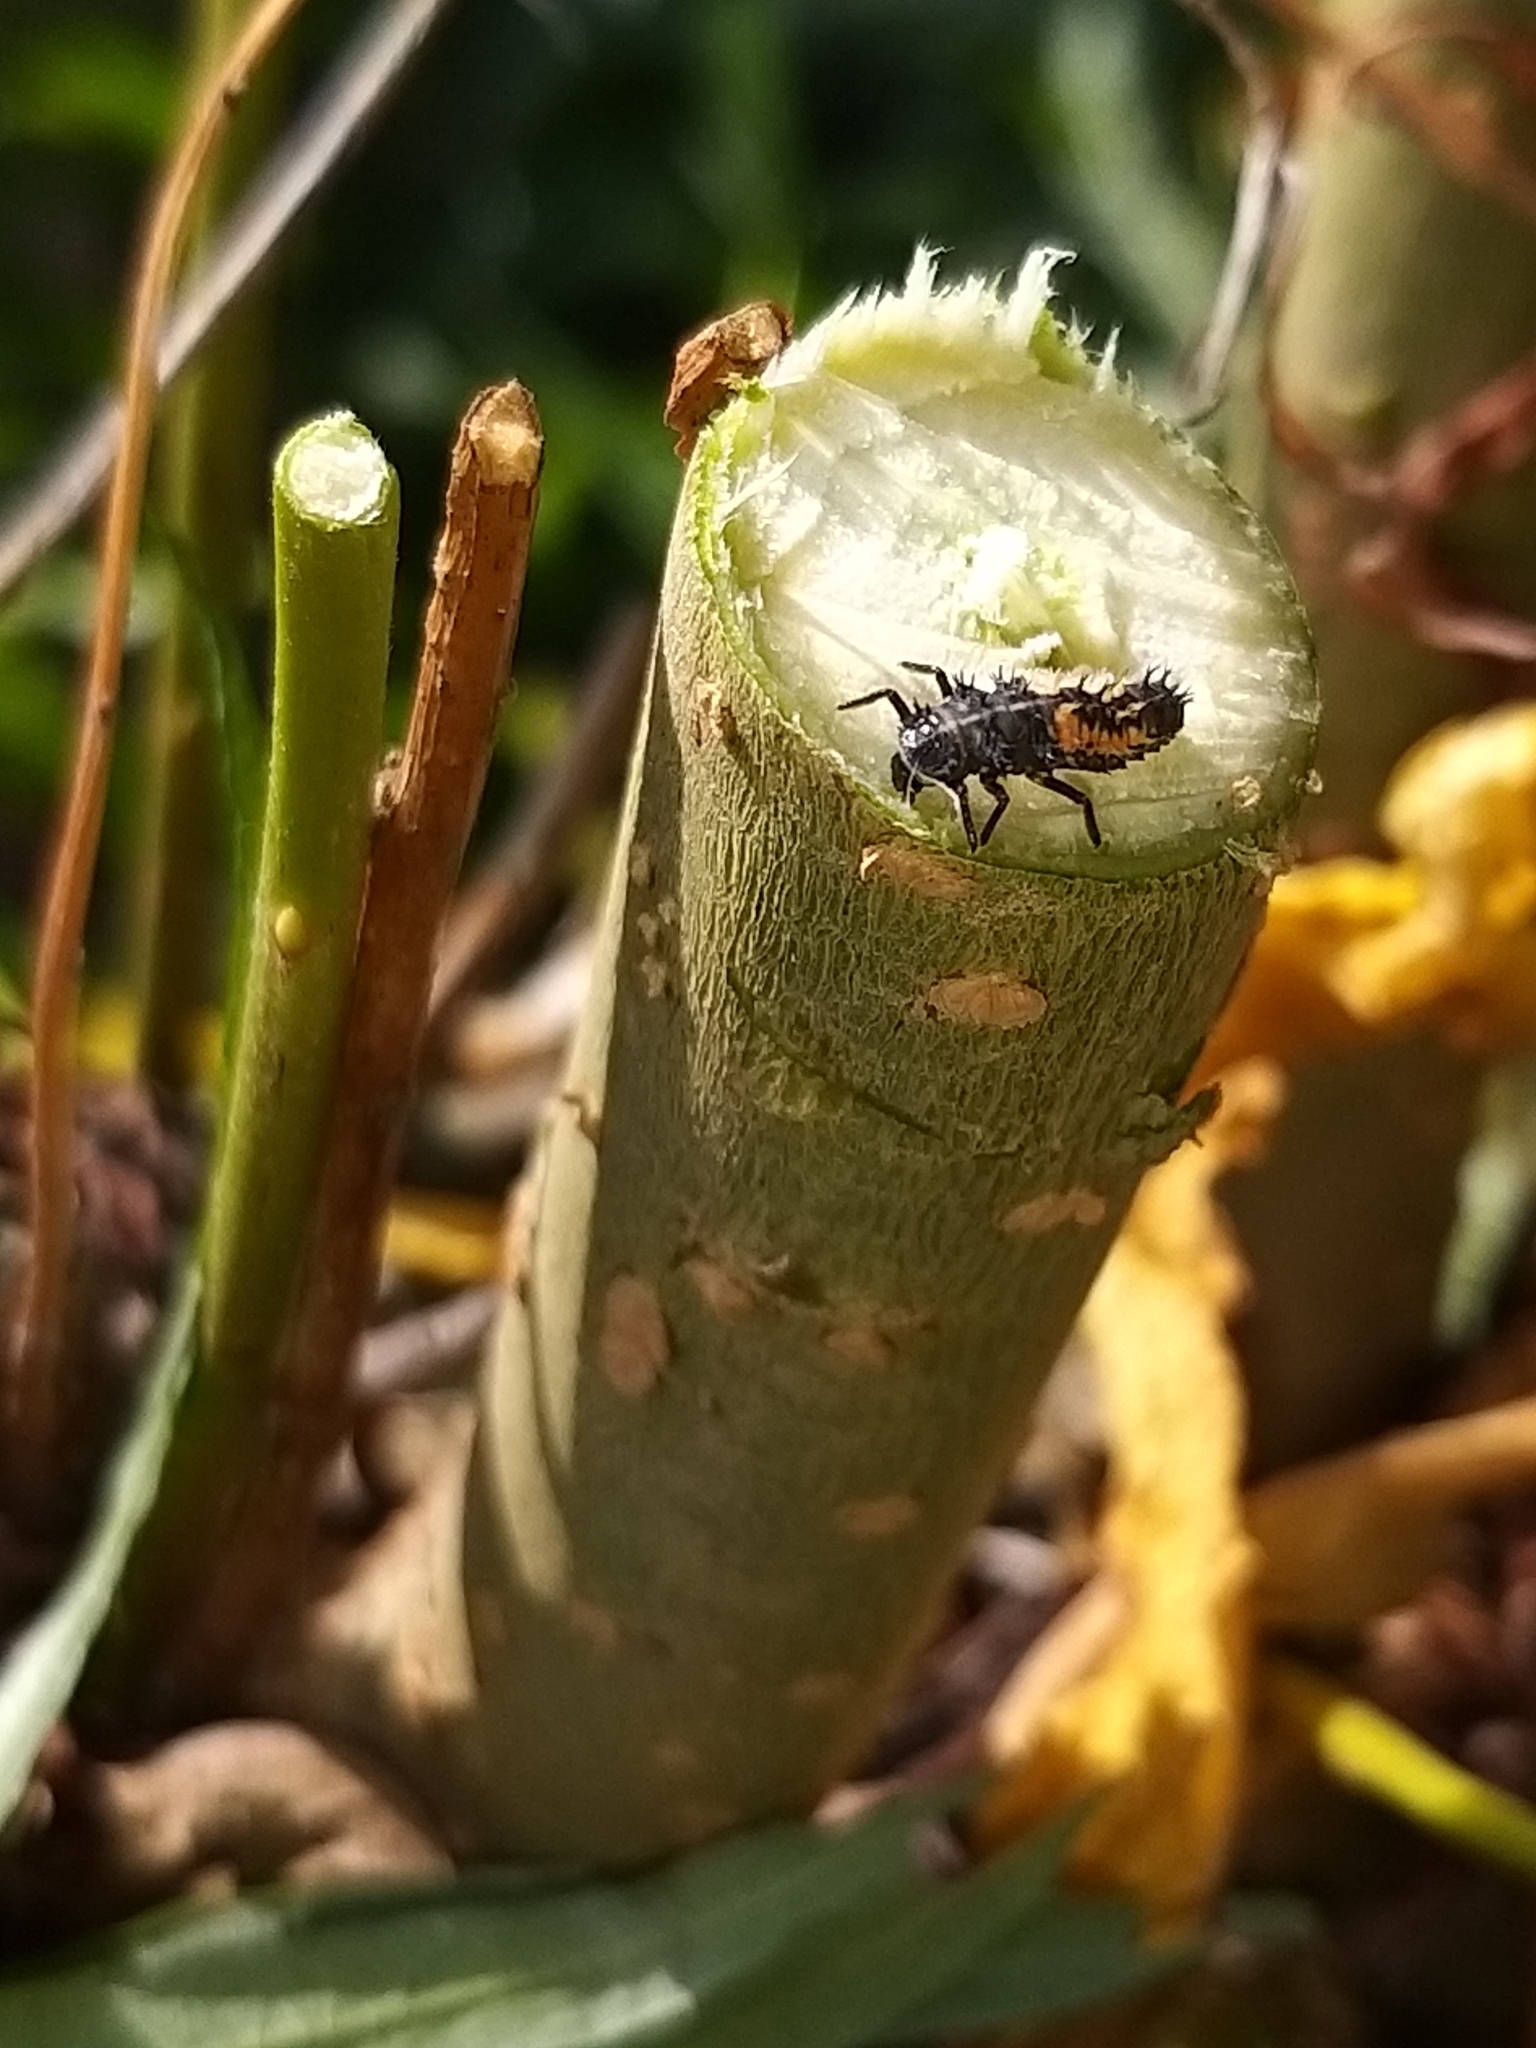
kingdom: Animalia
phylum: Arthropoda
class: Insecta
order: Coleoptera
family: Coccinellidae
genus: Harmonia
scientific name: Harmonia axyridis
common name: Harlequin ladybird
